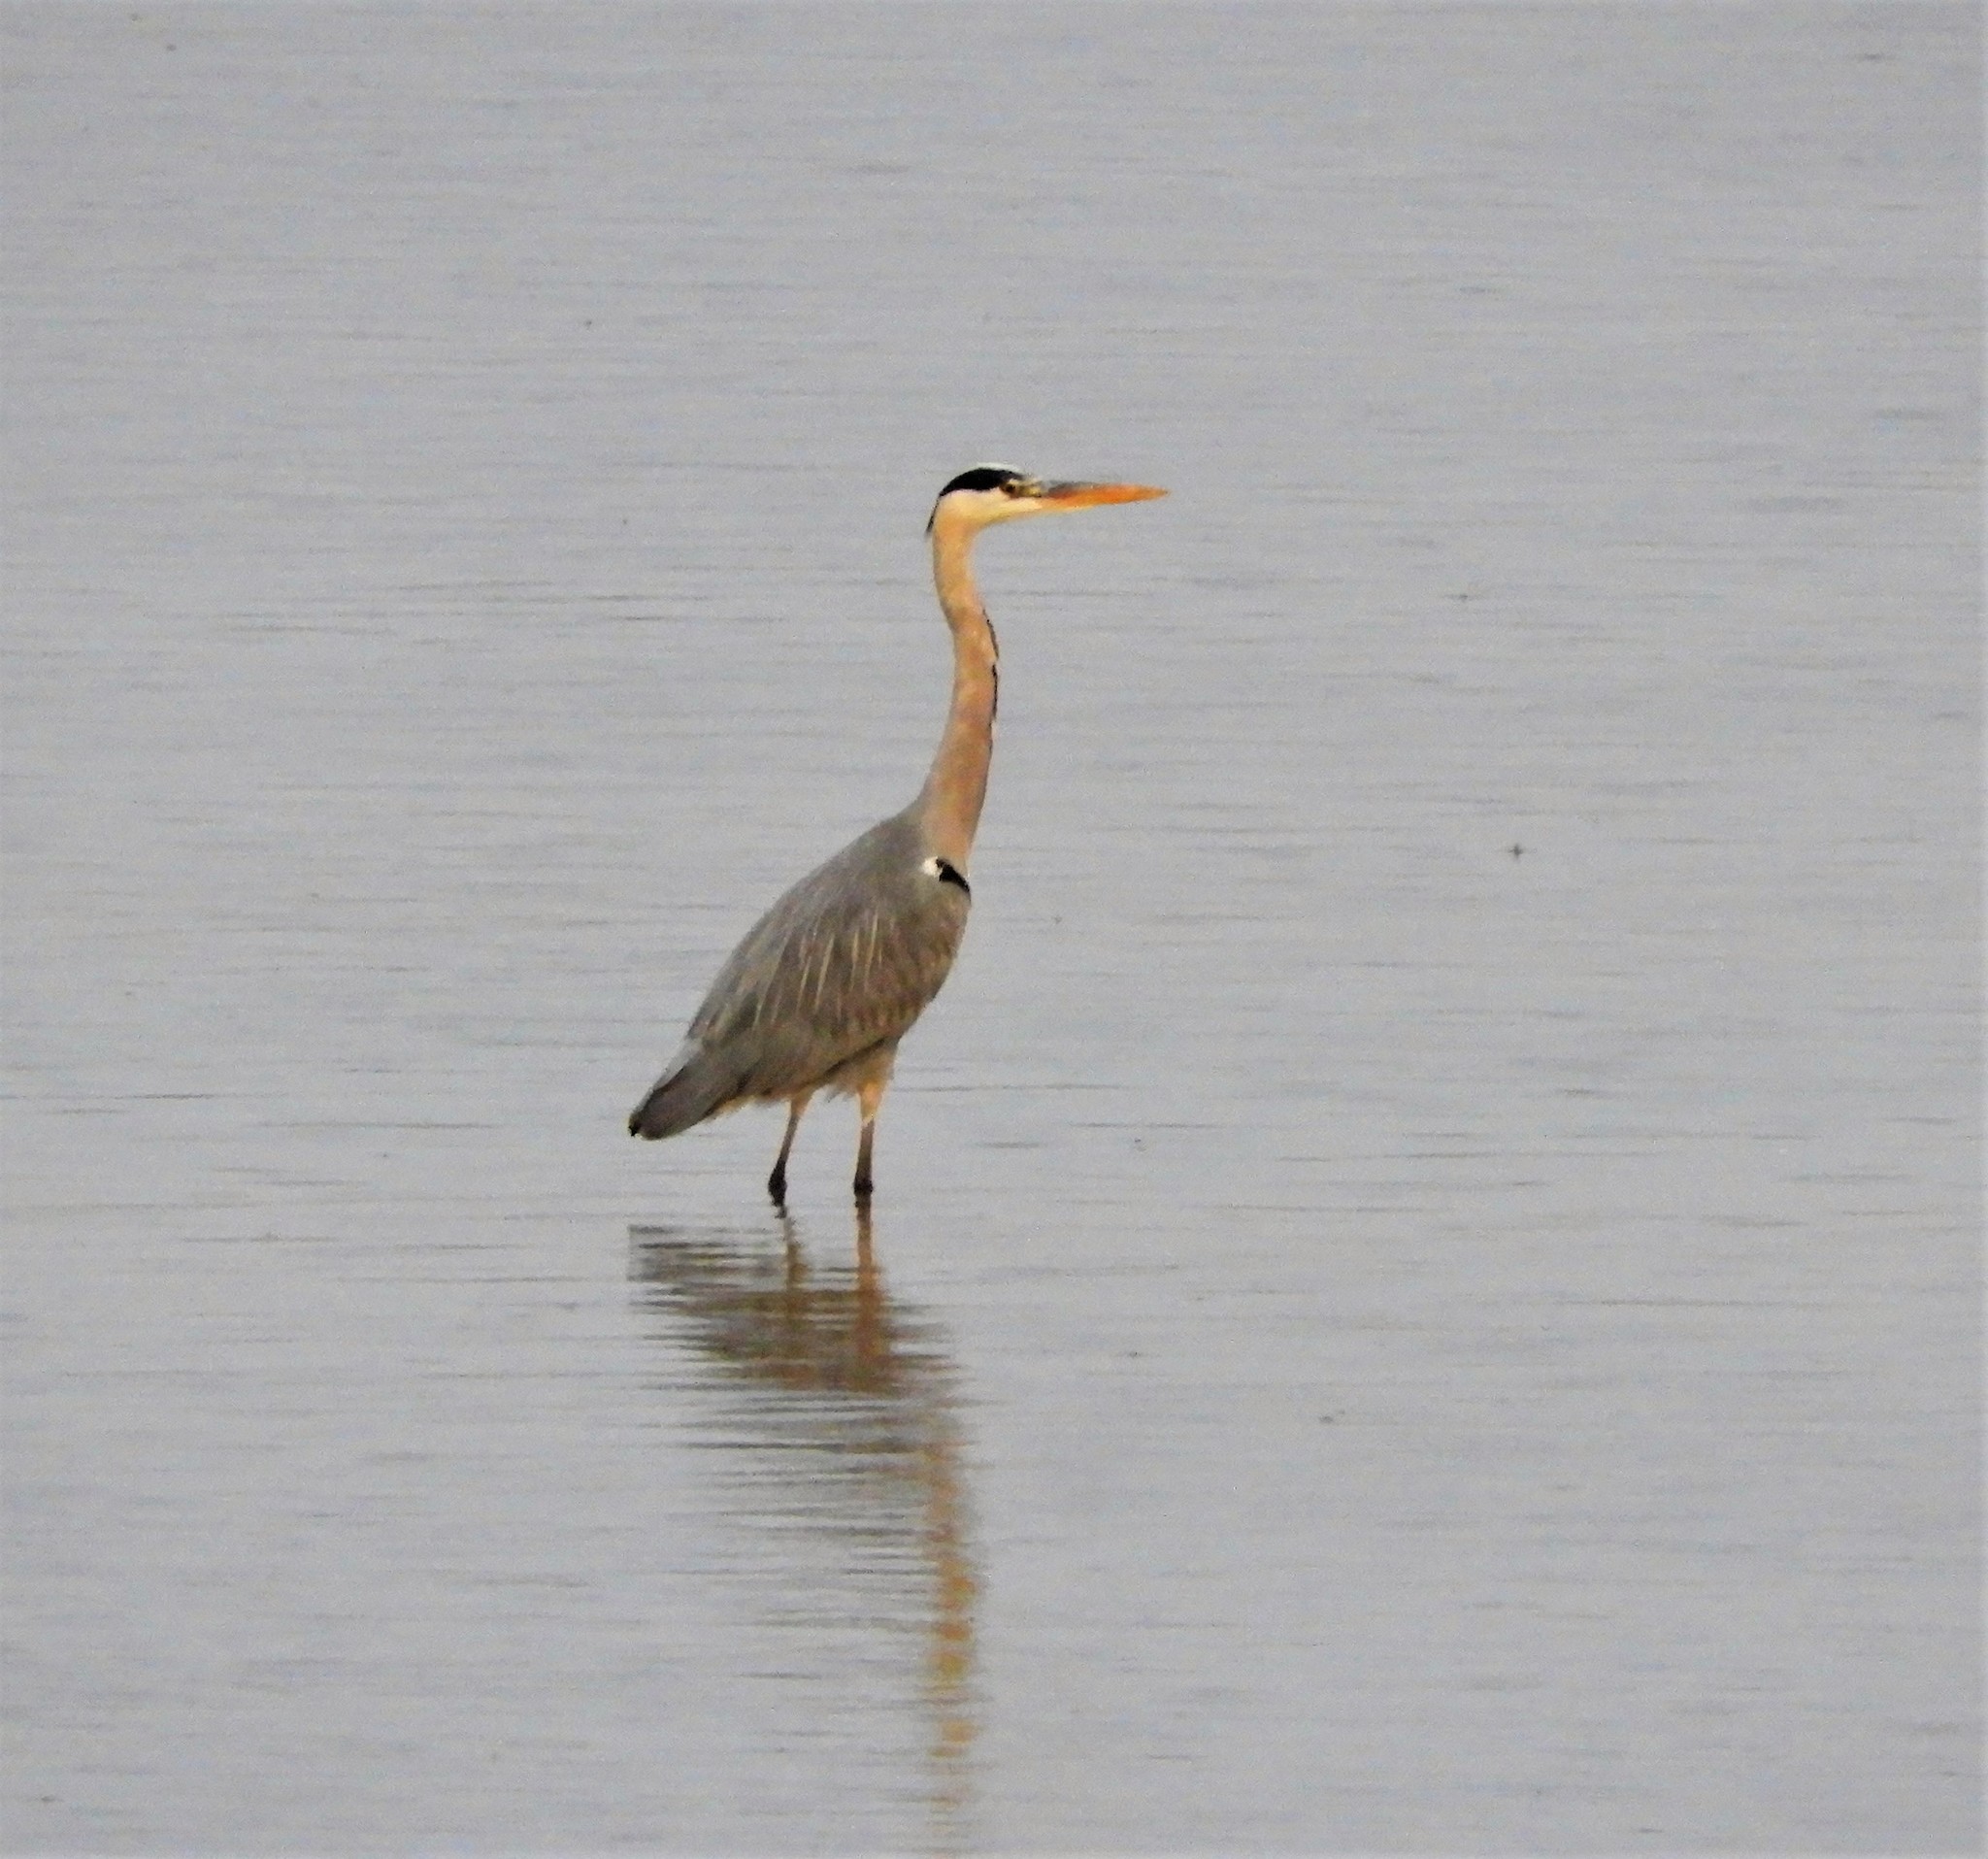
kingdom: Animalia
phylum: Chordata
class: Aves
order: Pelecaniformes
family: Ardeidae
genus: Ardea
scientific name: Ardea cinerea
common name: Grey heron
